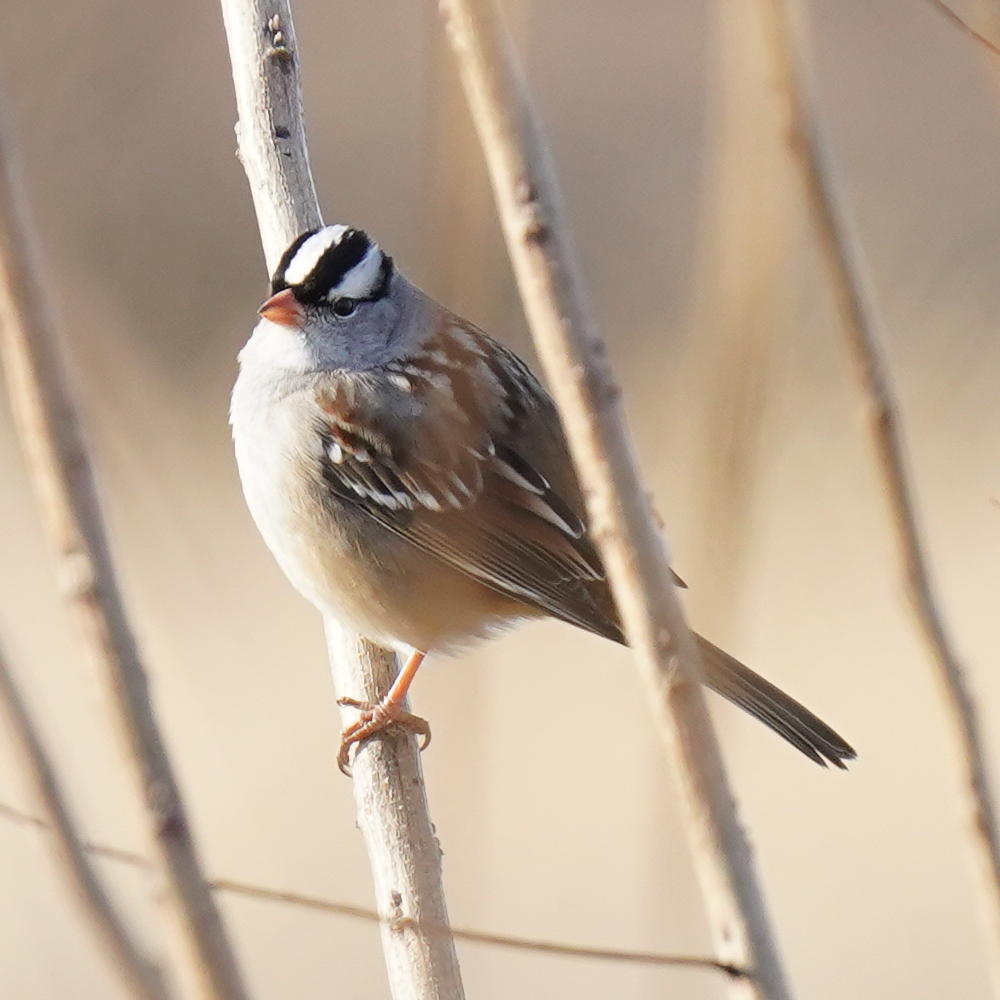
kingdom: Animalia
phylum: Chordata
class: Aves
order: Passeriformes
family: Passerellidae
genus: Zonotrichia
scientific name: Zonotrichia leucophrys
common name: White-crowned sparrow
